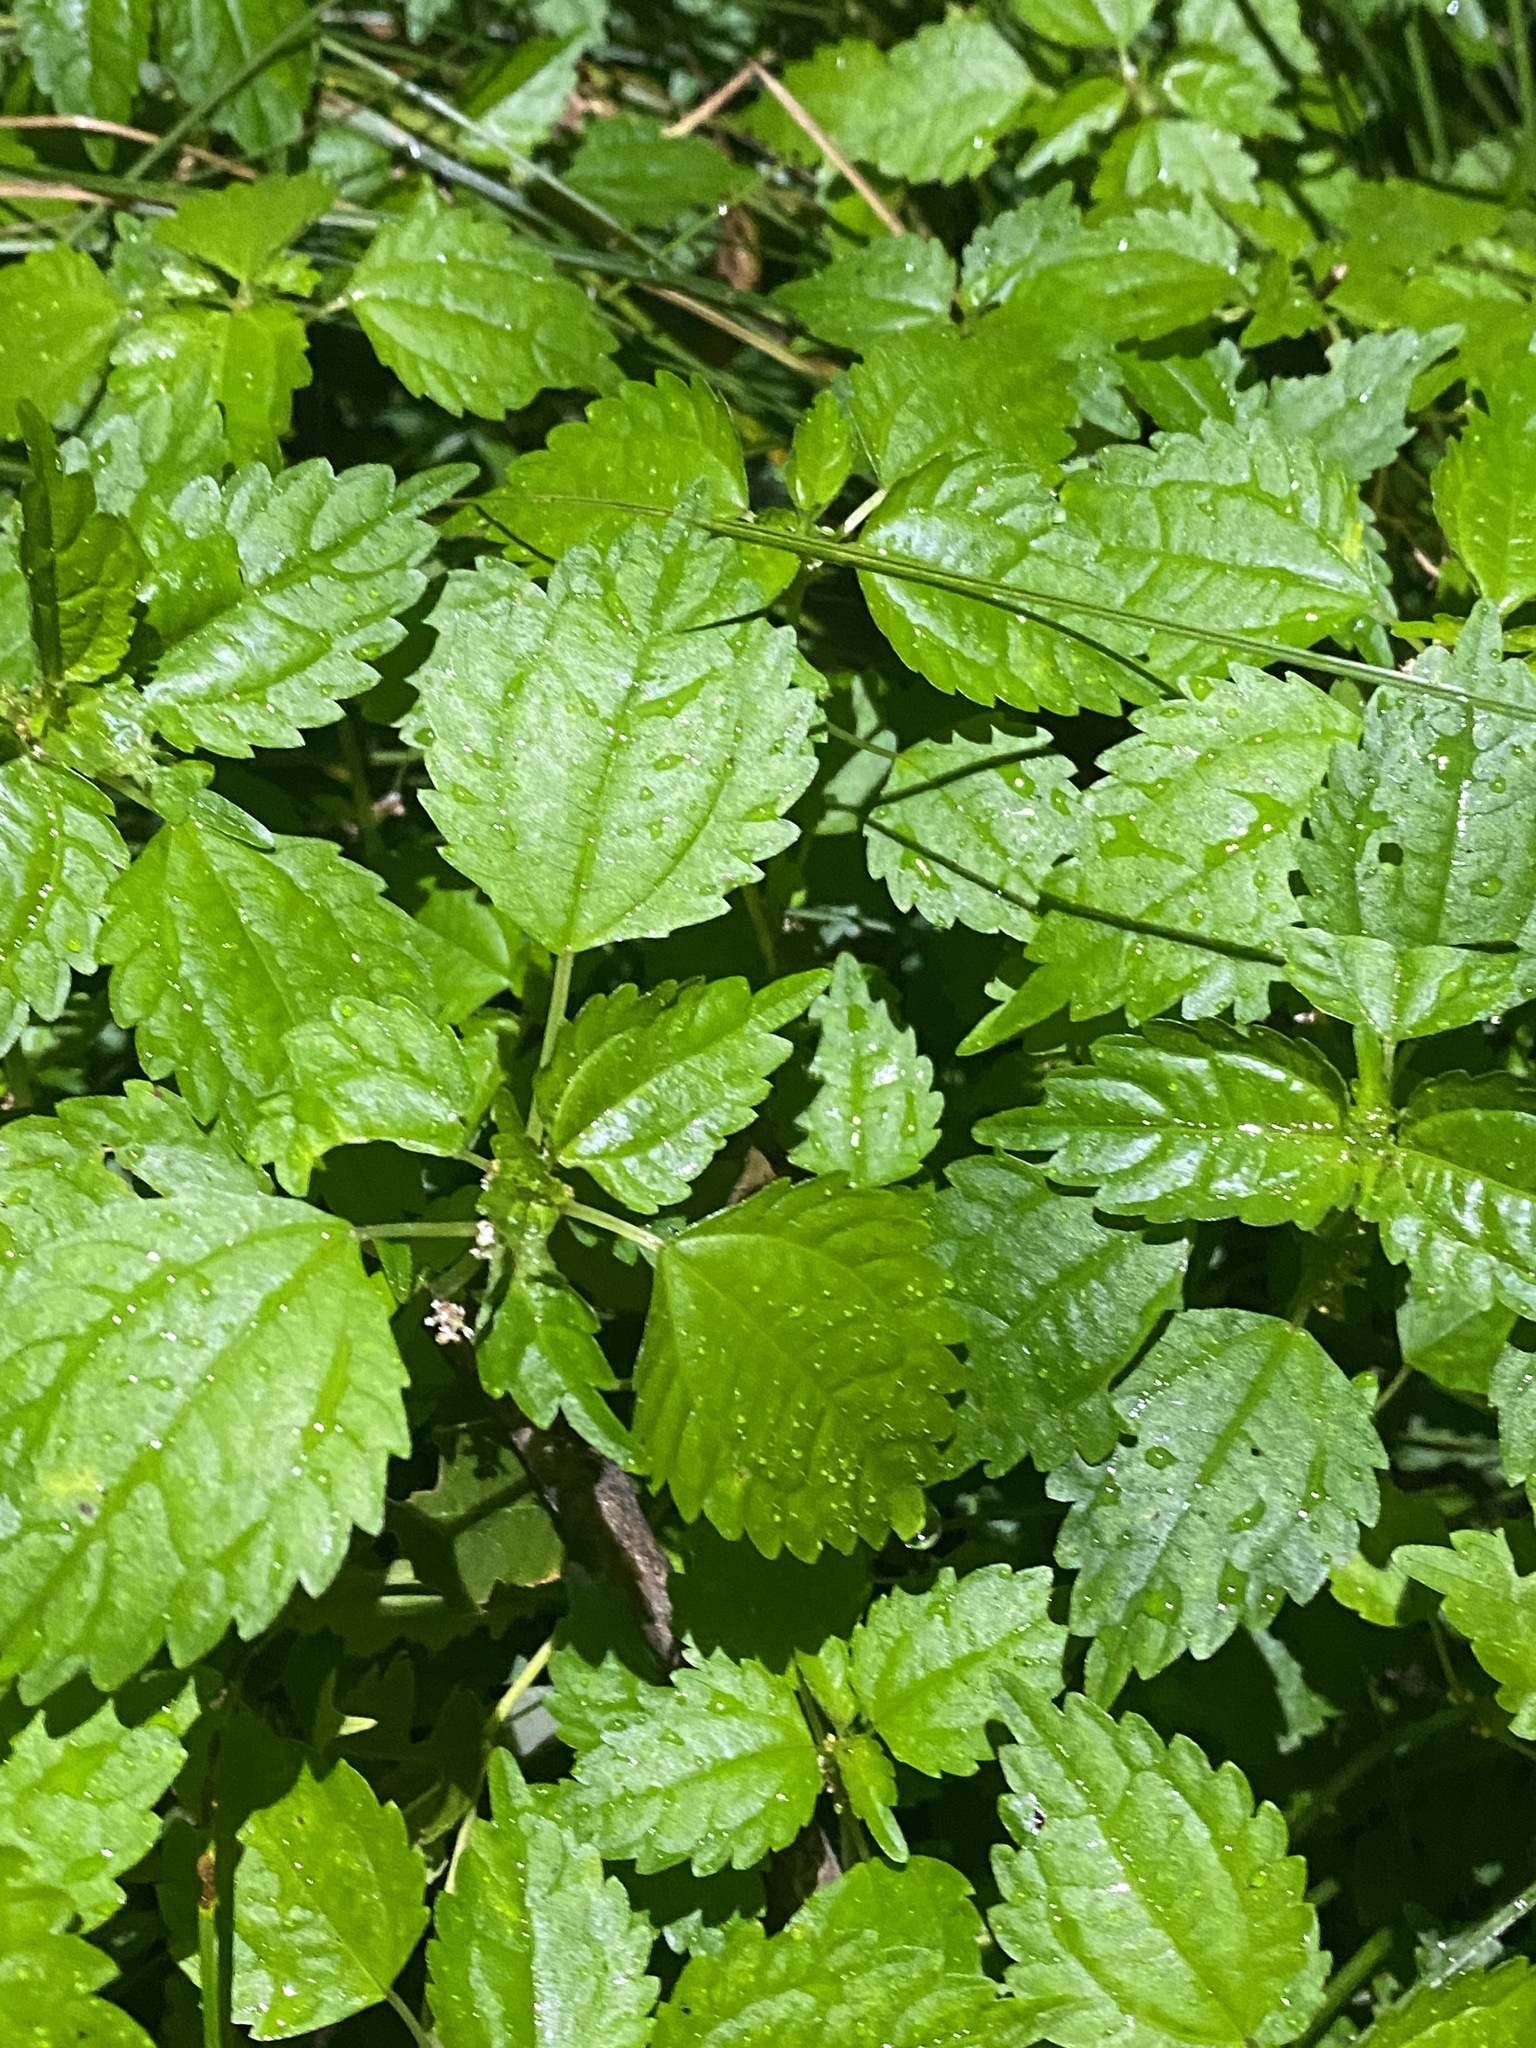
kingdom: Plantae
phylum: Tracheophyta
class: Magnoliopsida
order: Rosales
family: Urticaceae
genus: Pilea
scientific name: Pilea pumila
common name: Clearweed
